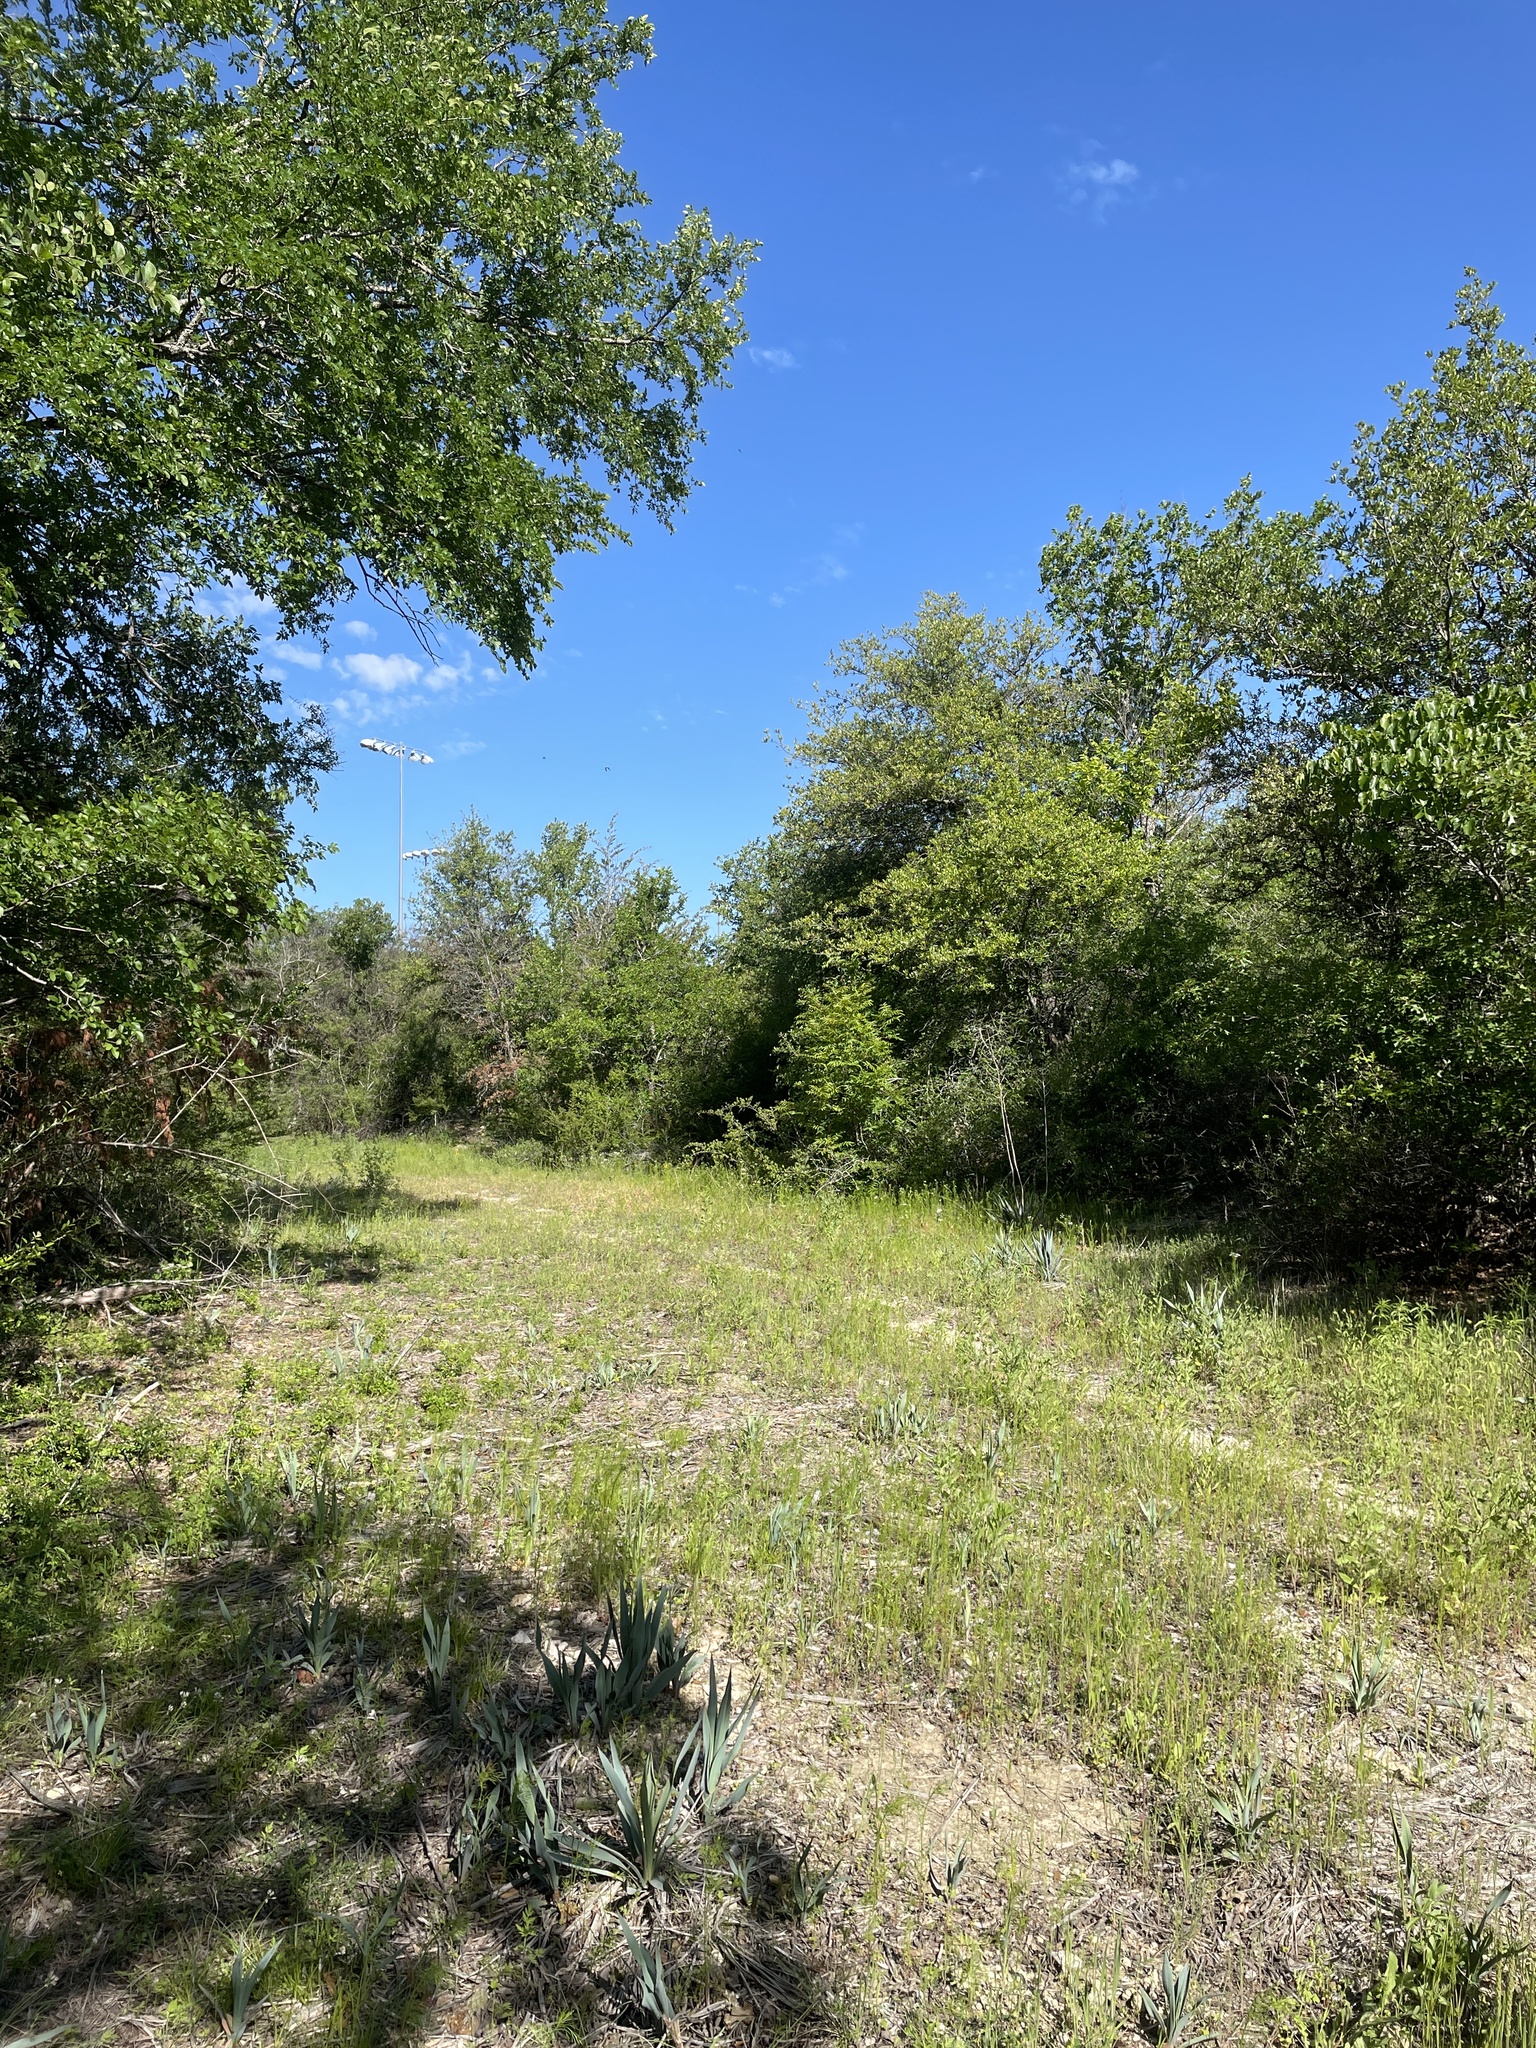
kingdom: Animalia
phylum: Chordata
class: Aves
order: Passeriformes
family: Parulidae
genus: Leiothlypis
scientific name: Leiothlypis ruficapilla
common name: Nashville warbler
